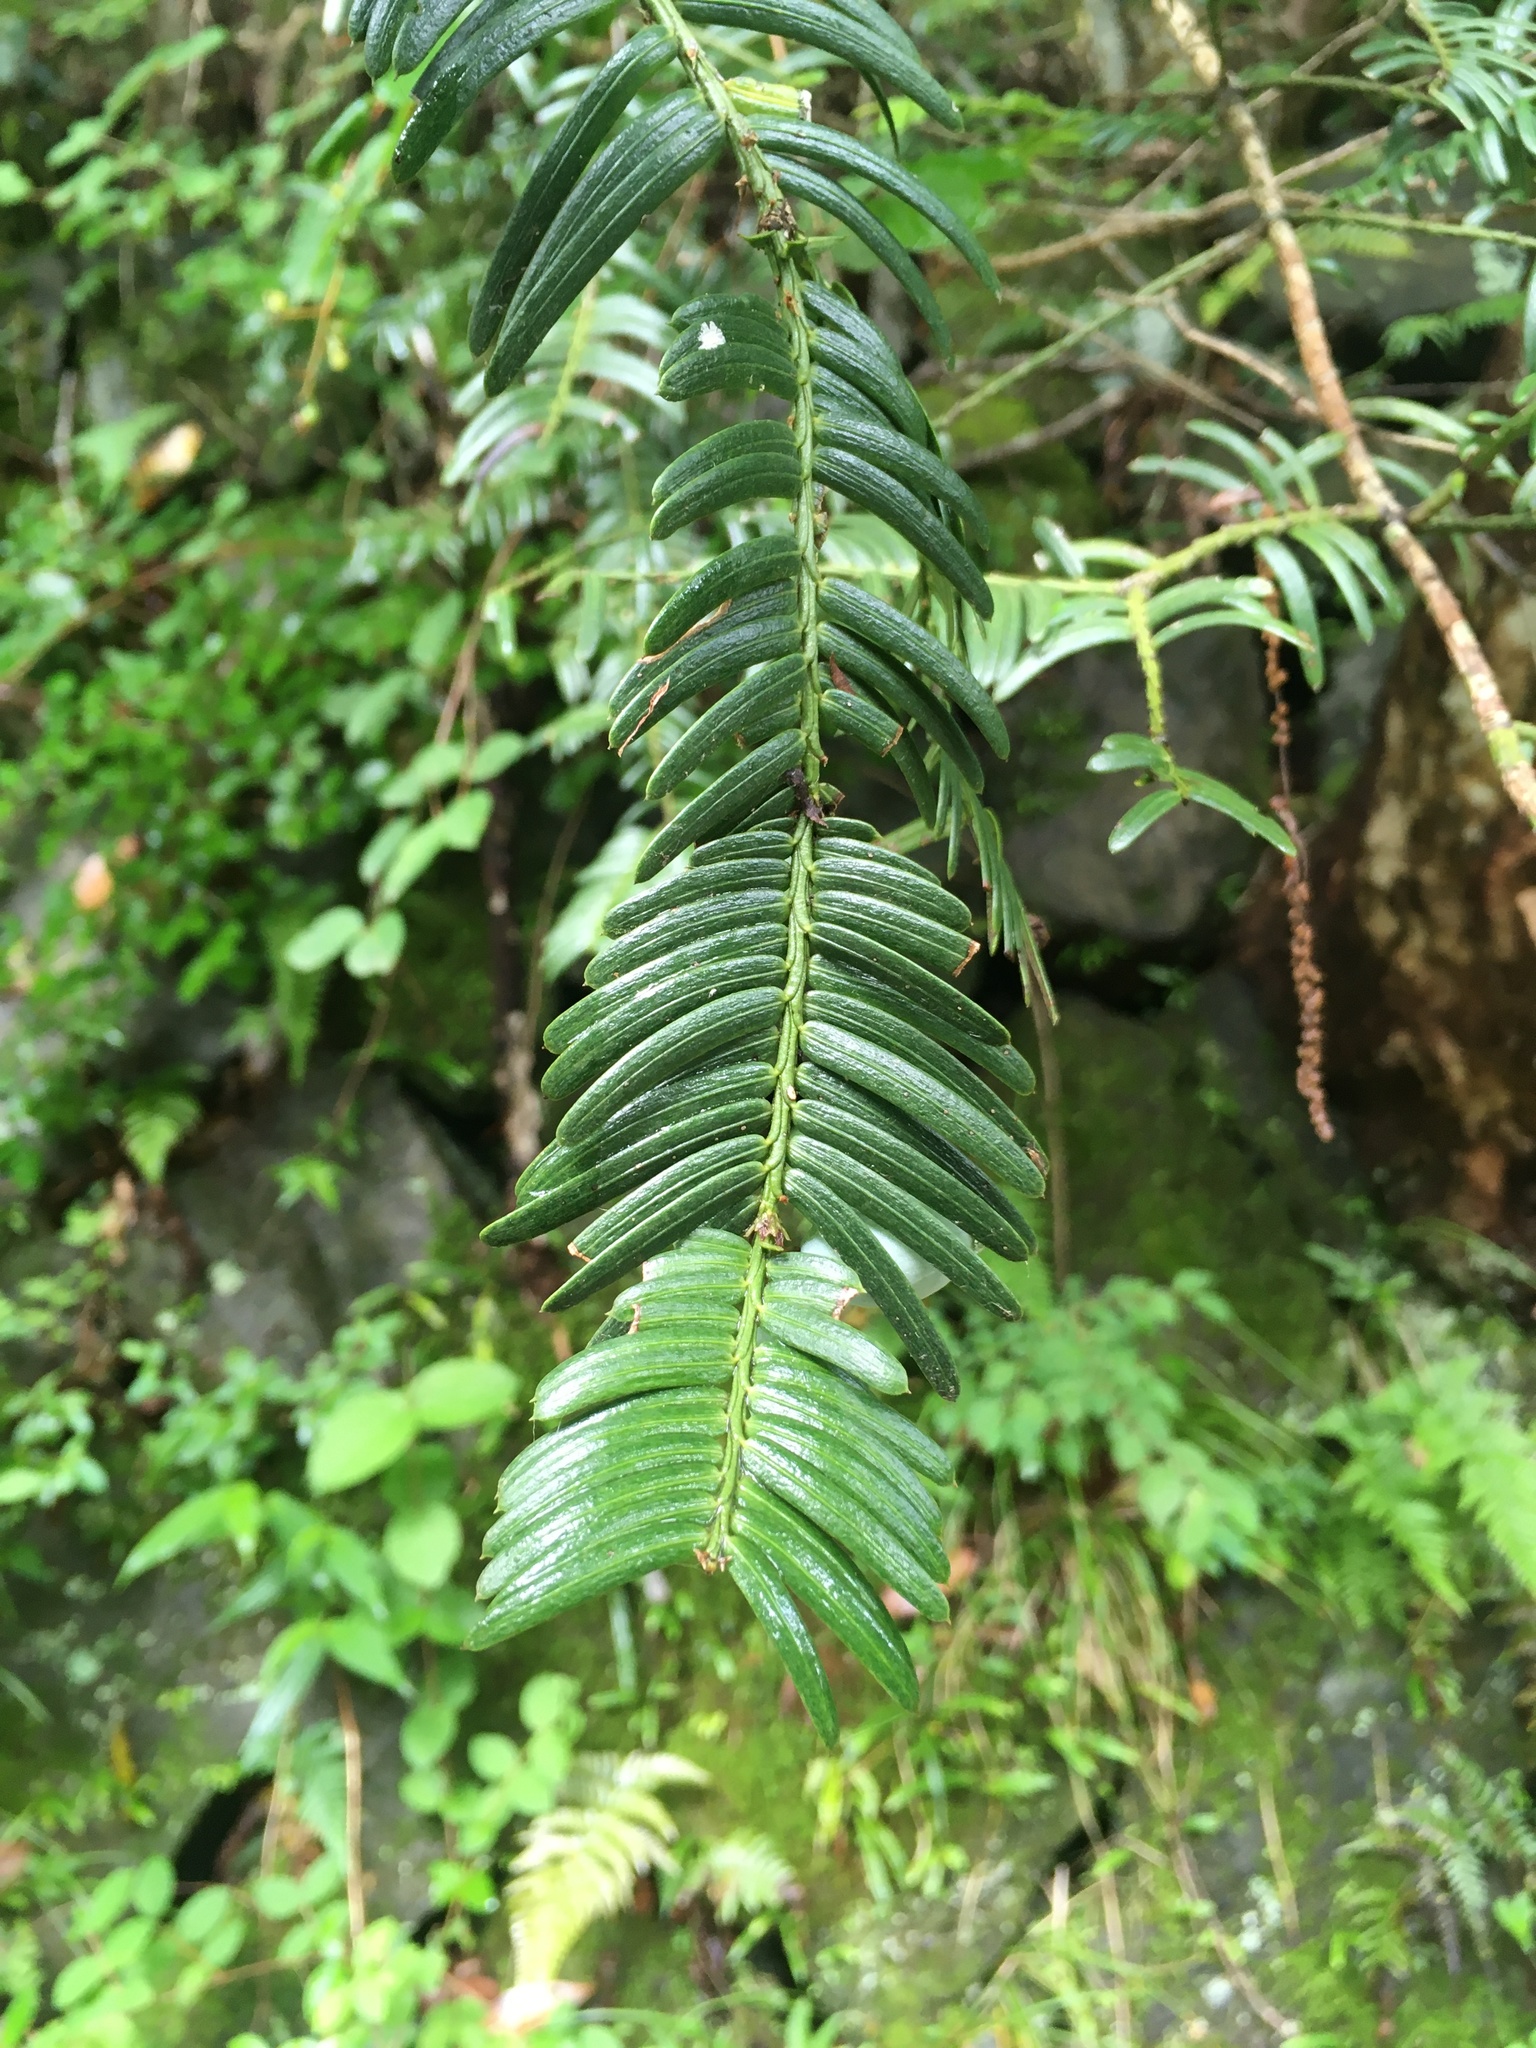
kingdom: Plantae
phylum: Tracheophyta
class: Pinopsida
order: Pinales
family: Cephalotaxaceae
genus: Cephalotaxus
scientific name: Cephalotaxus harringtonia
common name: Japanese plum-yew
